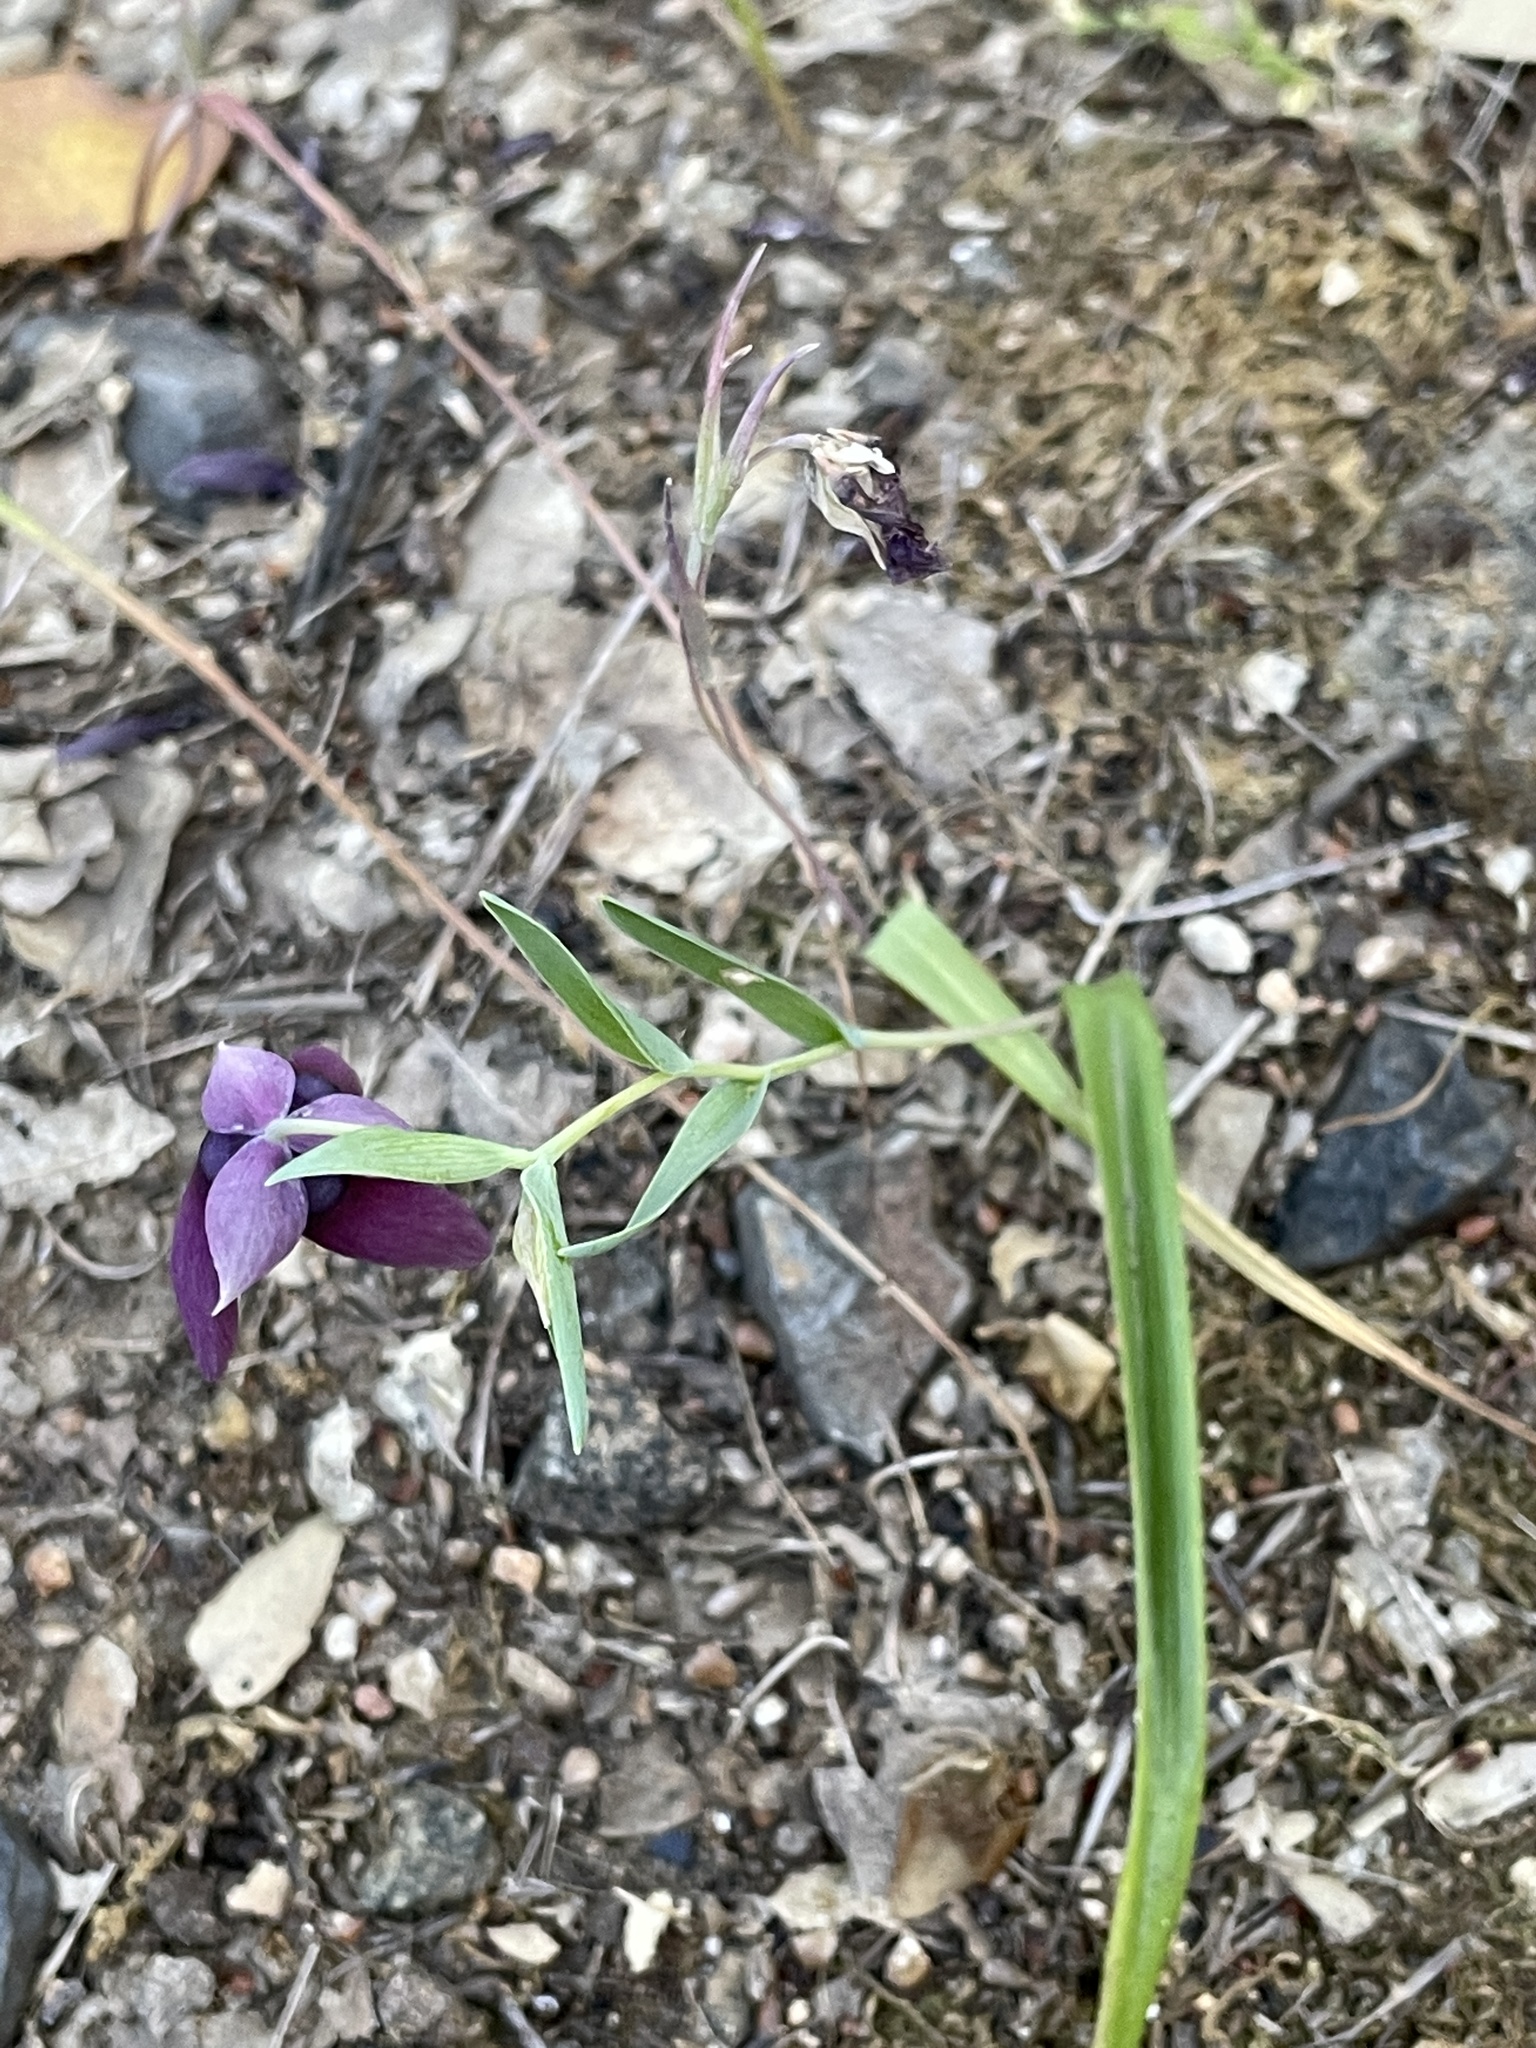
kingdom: Plantae
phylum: Tracheophyta
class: Liliopsida
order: Liliales
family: Liliaceae
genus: Calochortus
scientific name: Calochortus amoenus
